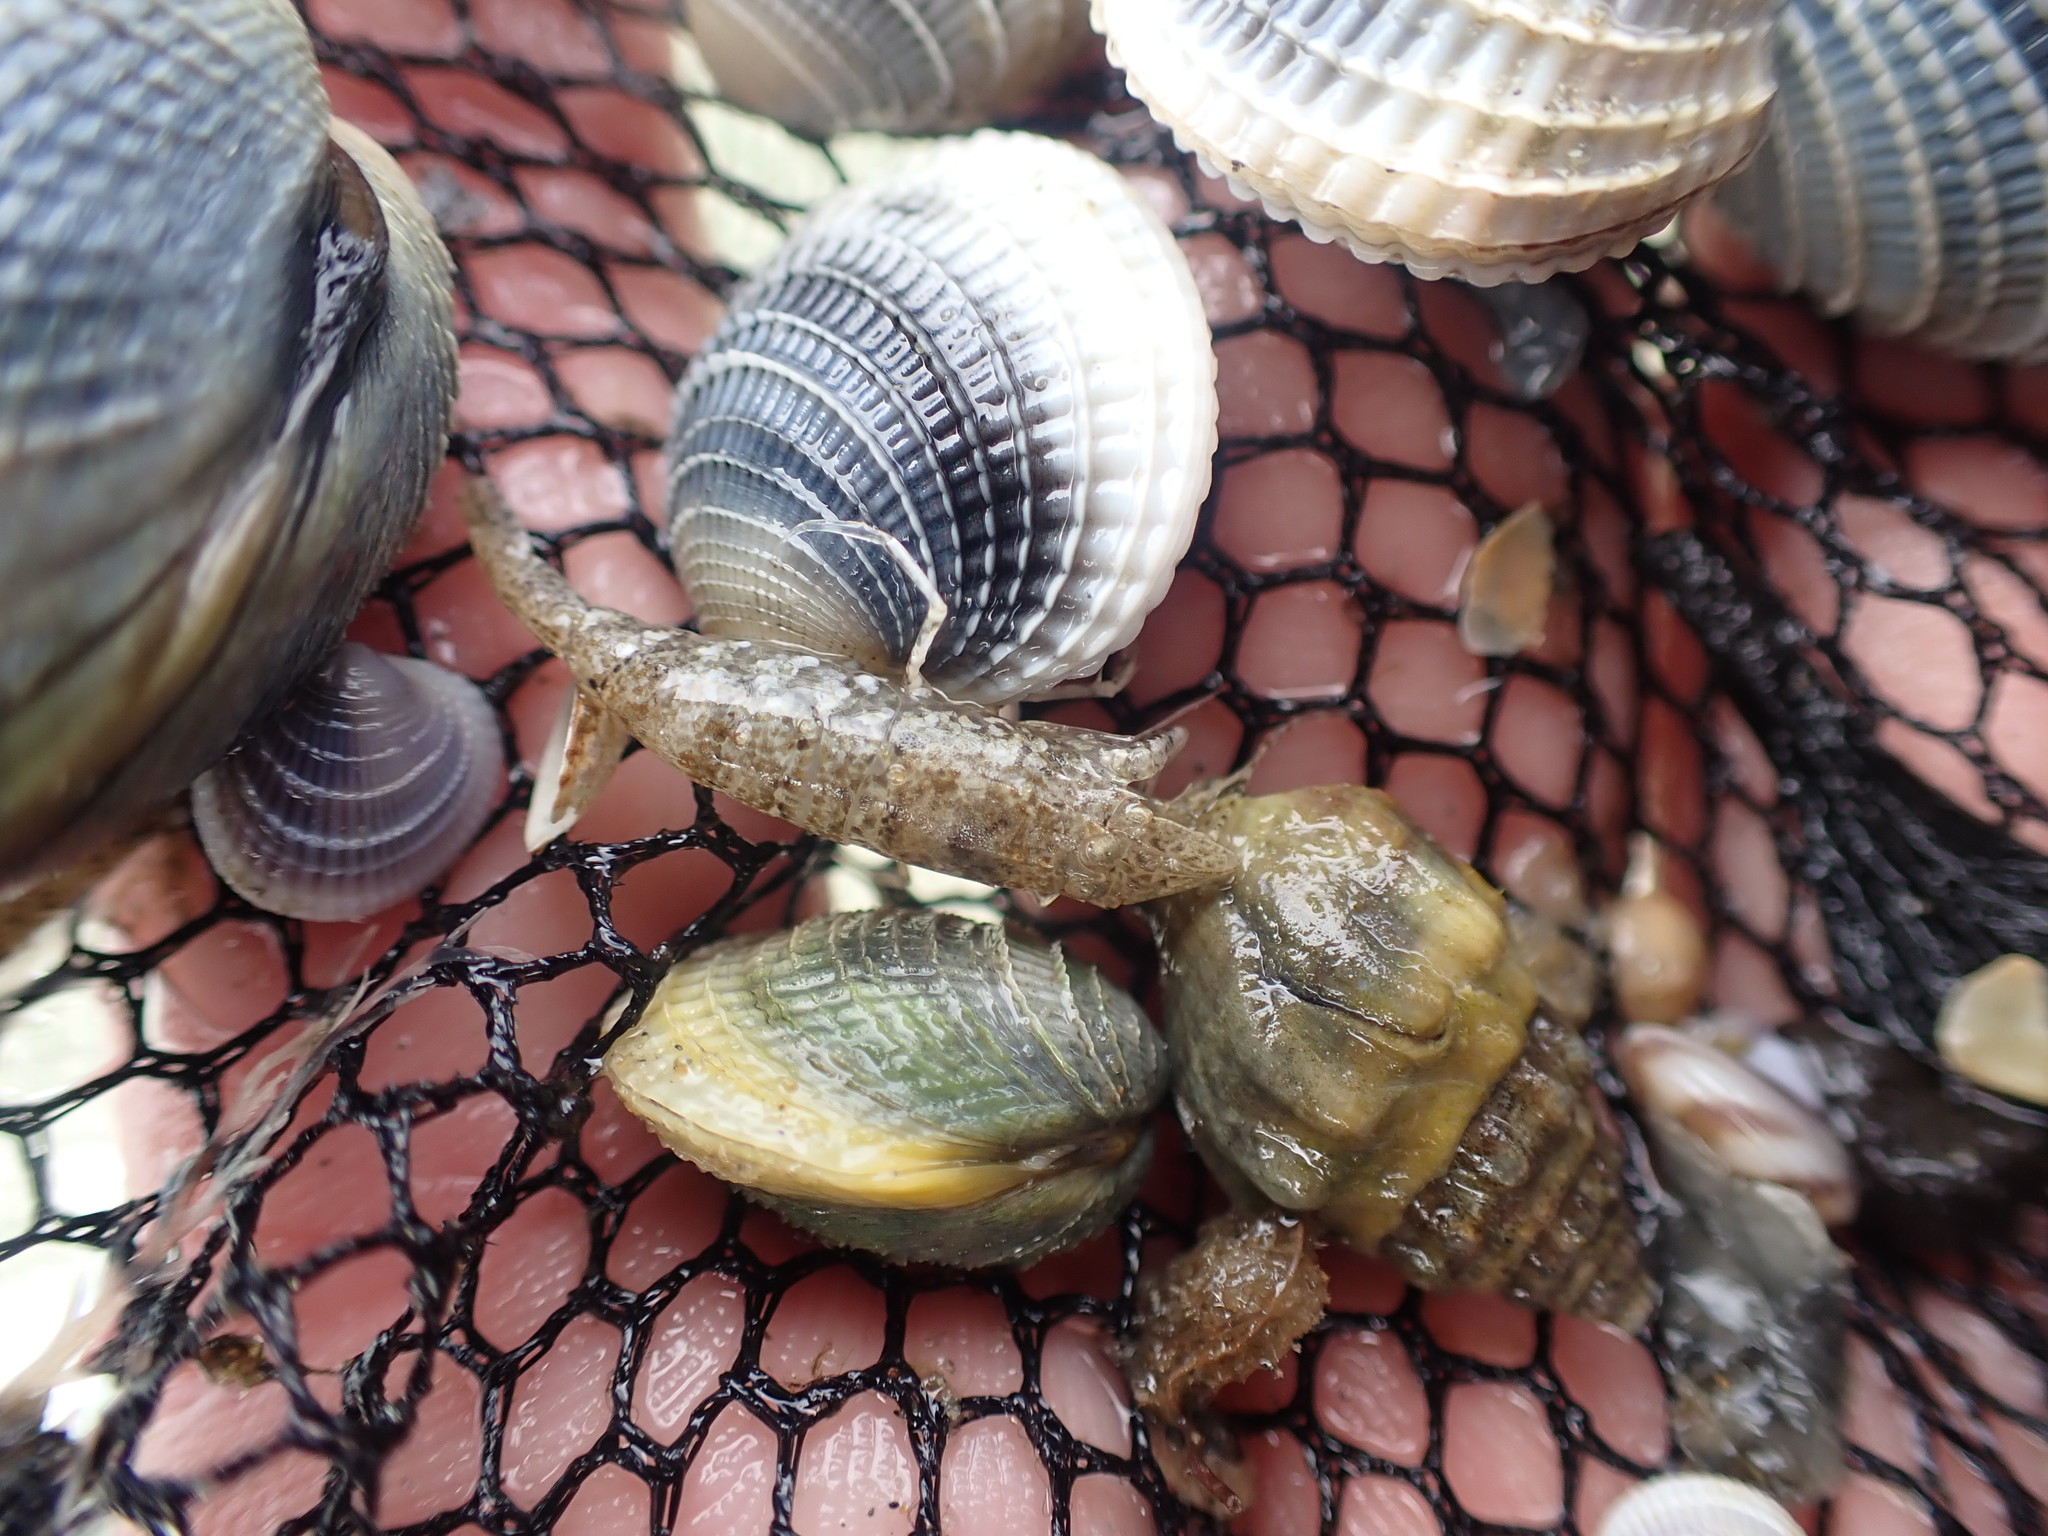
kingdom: Animalia
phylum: Arthropoda
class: Malacostraca
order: Decapoda
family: Crangonidae
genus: Philocheras
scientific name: Philocheras australis
